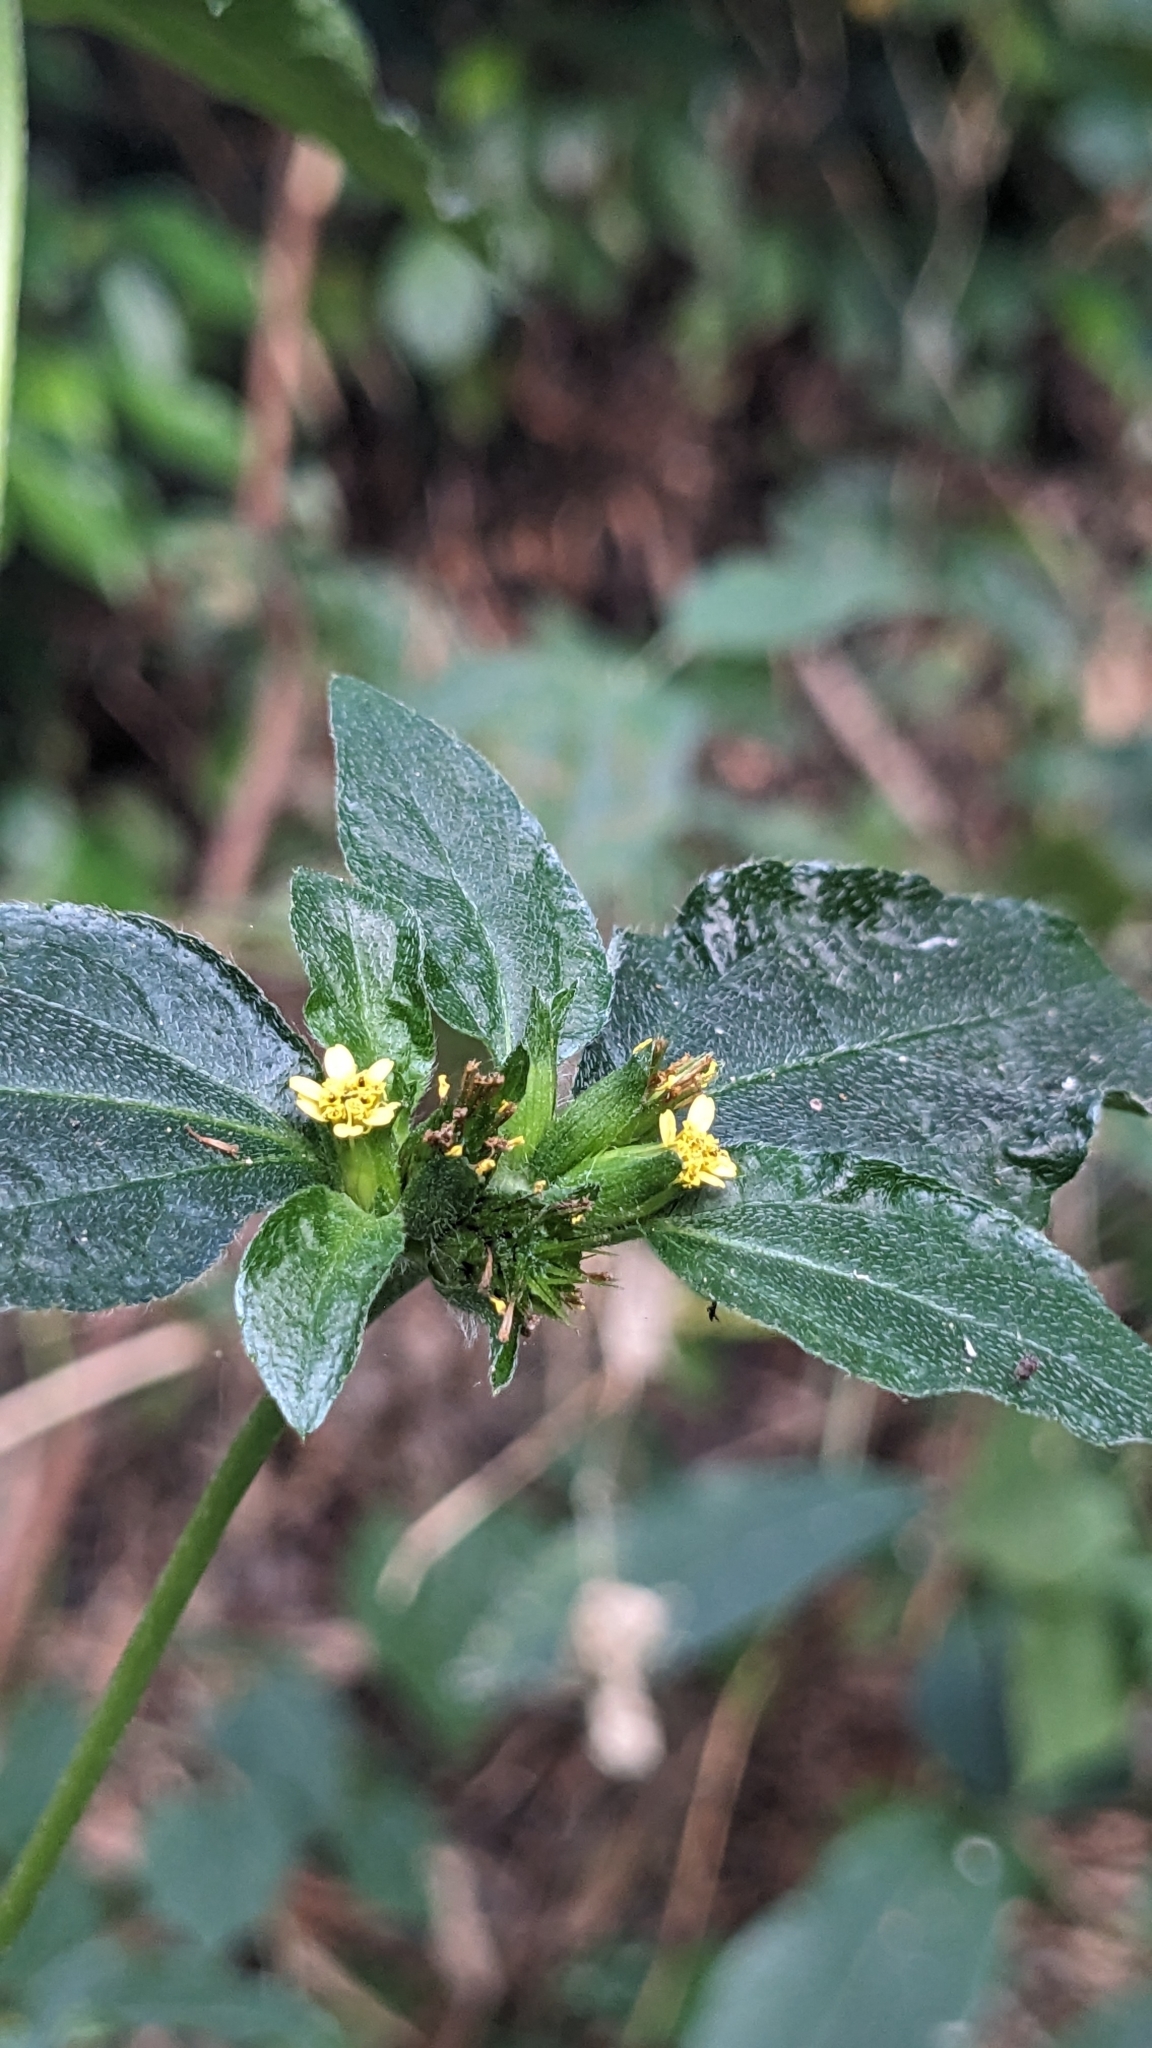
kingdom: Plantae
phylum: Tracheophyta
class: Magnoliopsida
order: Asterales
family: Asteraceae
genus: Synedrella
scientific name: Synedrella nodiflora
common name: Nodeweed
